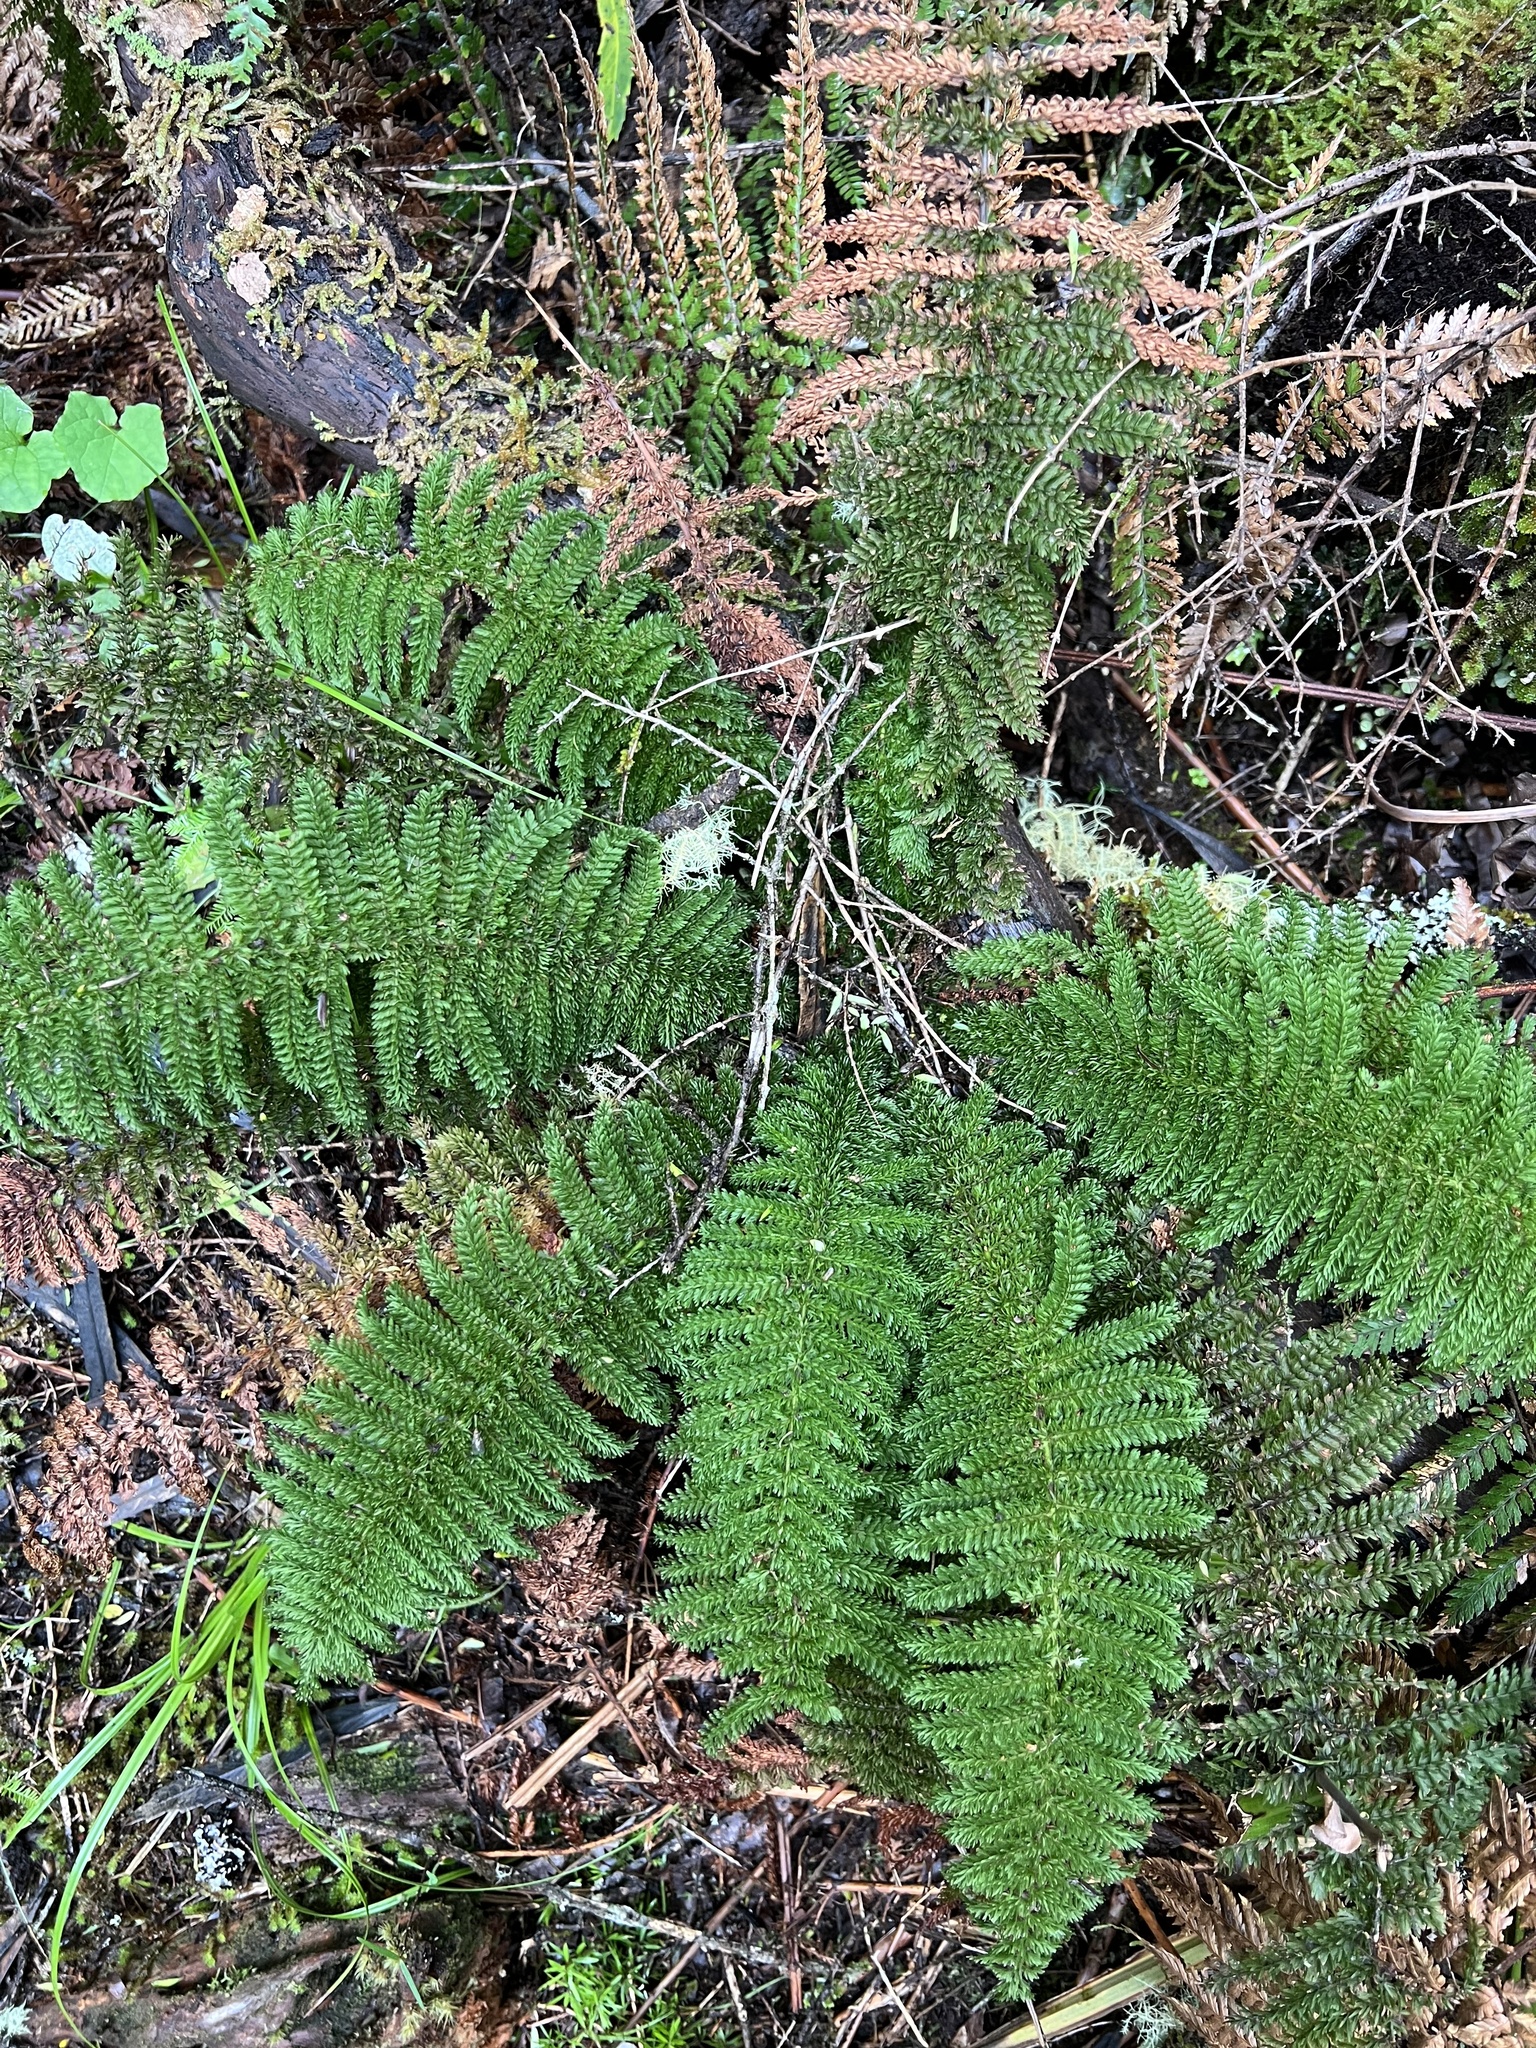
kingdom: Plantae
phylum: Tracheophyta
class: Polypodiopsida
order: Osmundales
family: Osmundaceae
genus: Leptopteris
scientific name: Leptopteris superba
